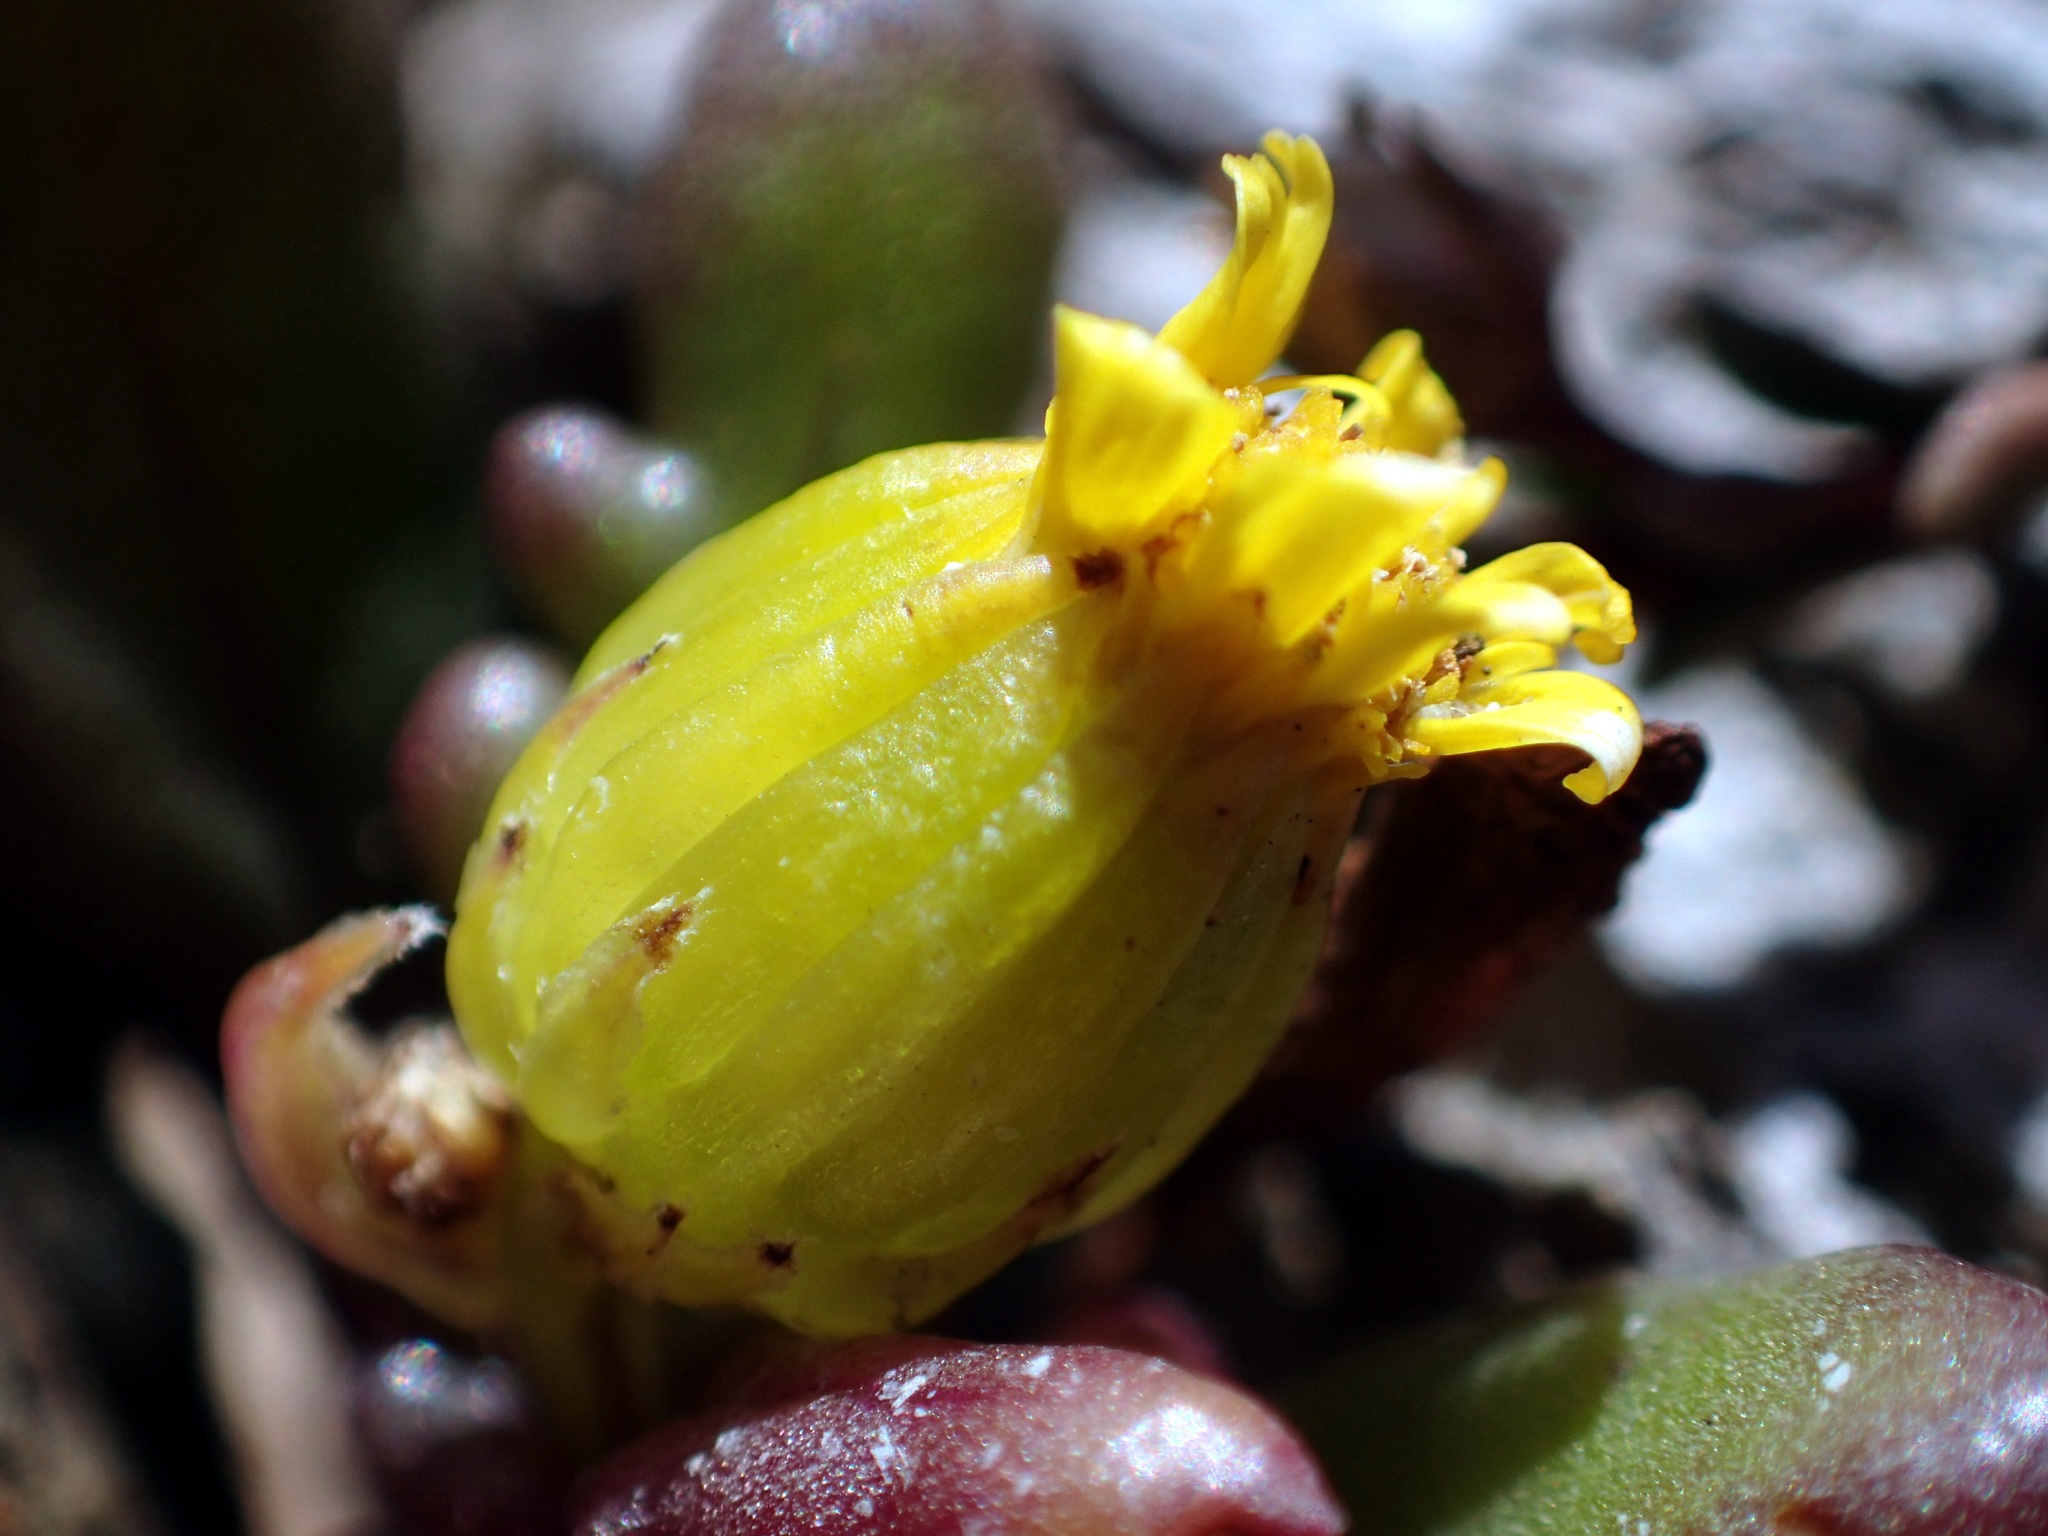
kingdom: Plantae
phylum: Tracheophyta
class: Magnoliopsida
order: Asterales
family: Asteraceae
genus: Senecio
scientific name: Senecio lautus
